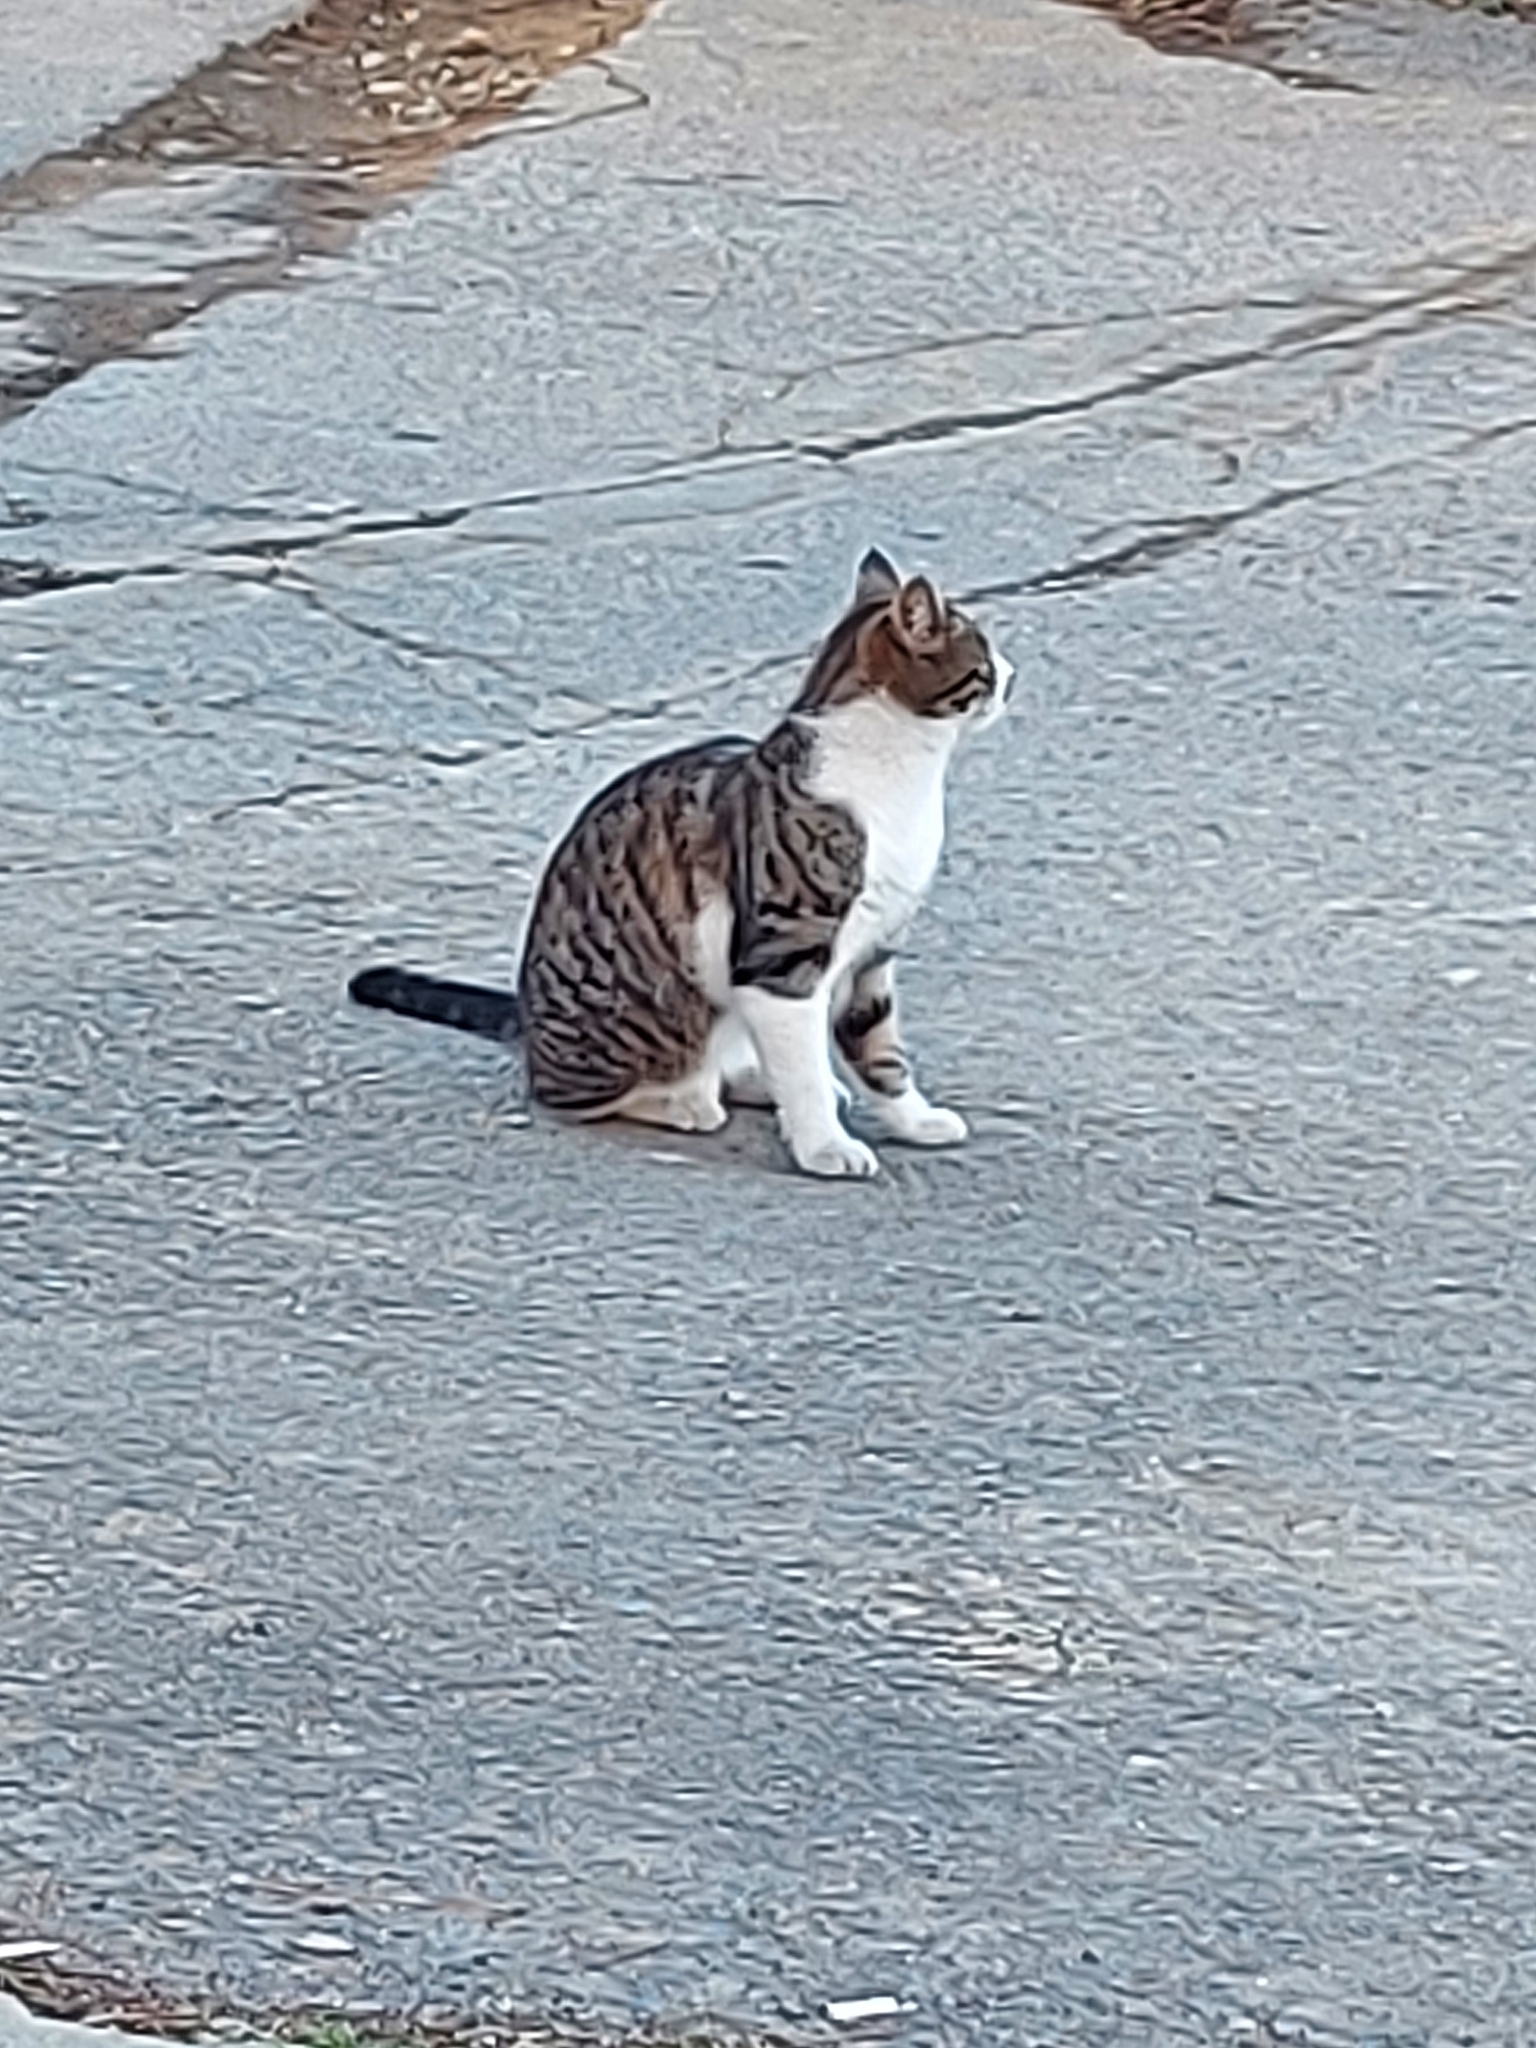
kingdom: Animalia
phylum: Chordata
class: Mammalia
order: Carnivora
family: Felidae
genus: Felis
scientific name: Felis catus
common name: Domestic cat
